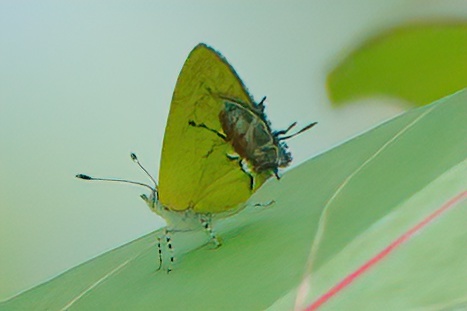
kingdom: Animalia
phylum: Arthropoda
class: Insecta
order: Lepidoptera
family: Lycaenidae
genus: Thecla
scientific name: Thecla maesites
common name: Verde azul hairstreak
